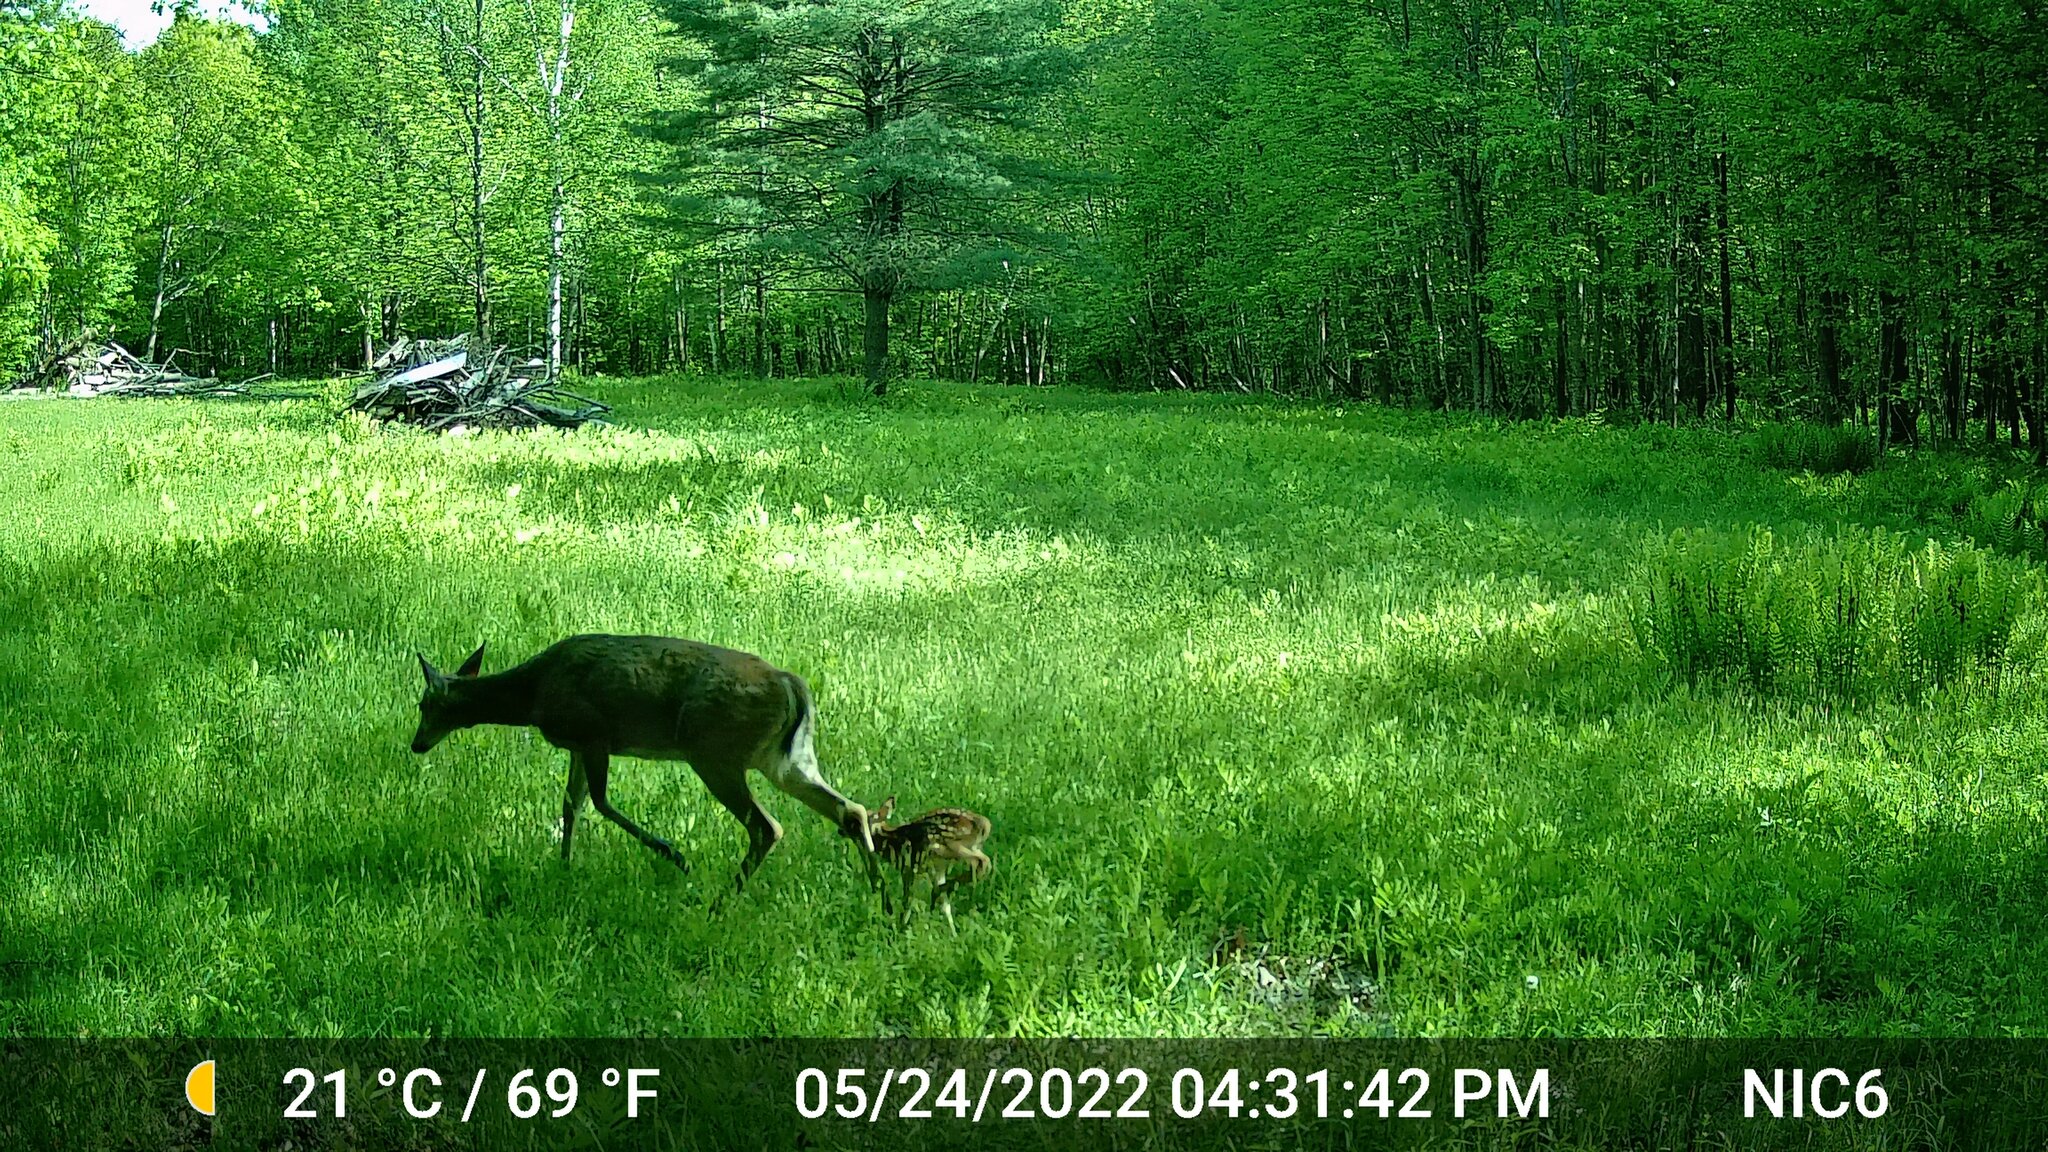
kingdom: Animalia
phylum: Chordata
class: Mammalia
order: Artiodactyla
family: Cervidae
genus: Odocoileus
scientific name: Odocoileus virginianus
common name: White-tailed deer
